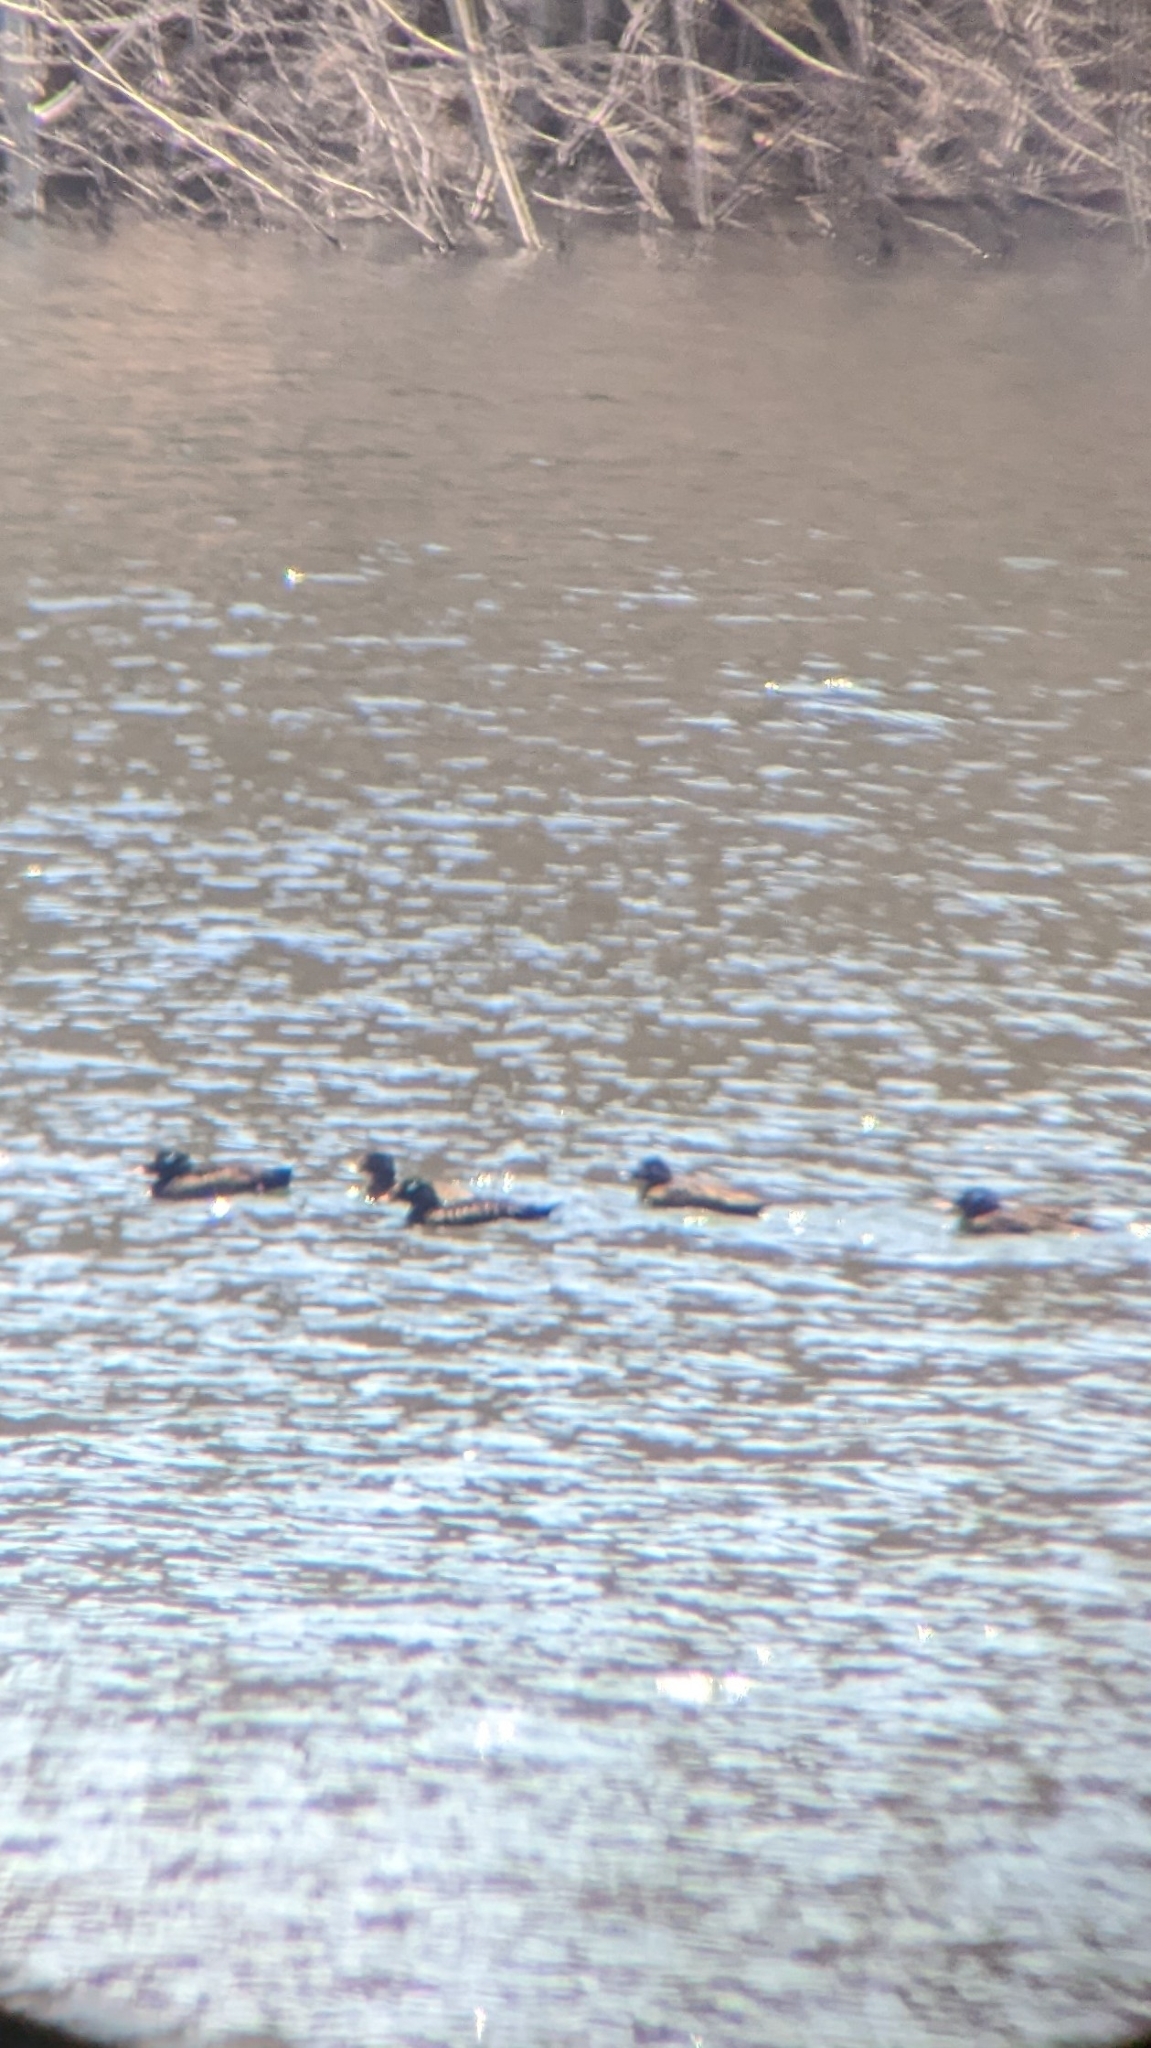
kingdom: Animalia
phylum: Chordata
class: Aves
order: Anseriformes
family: Anatidae
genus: Melanitta
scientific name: Melanitta deglandi
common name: White-winged scoter
